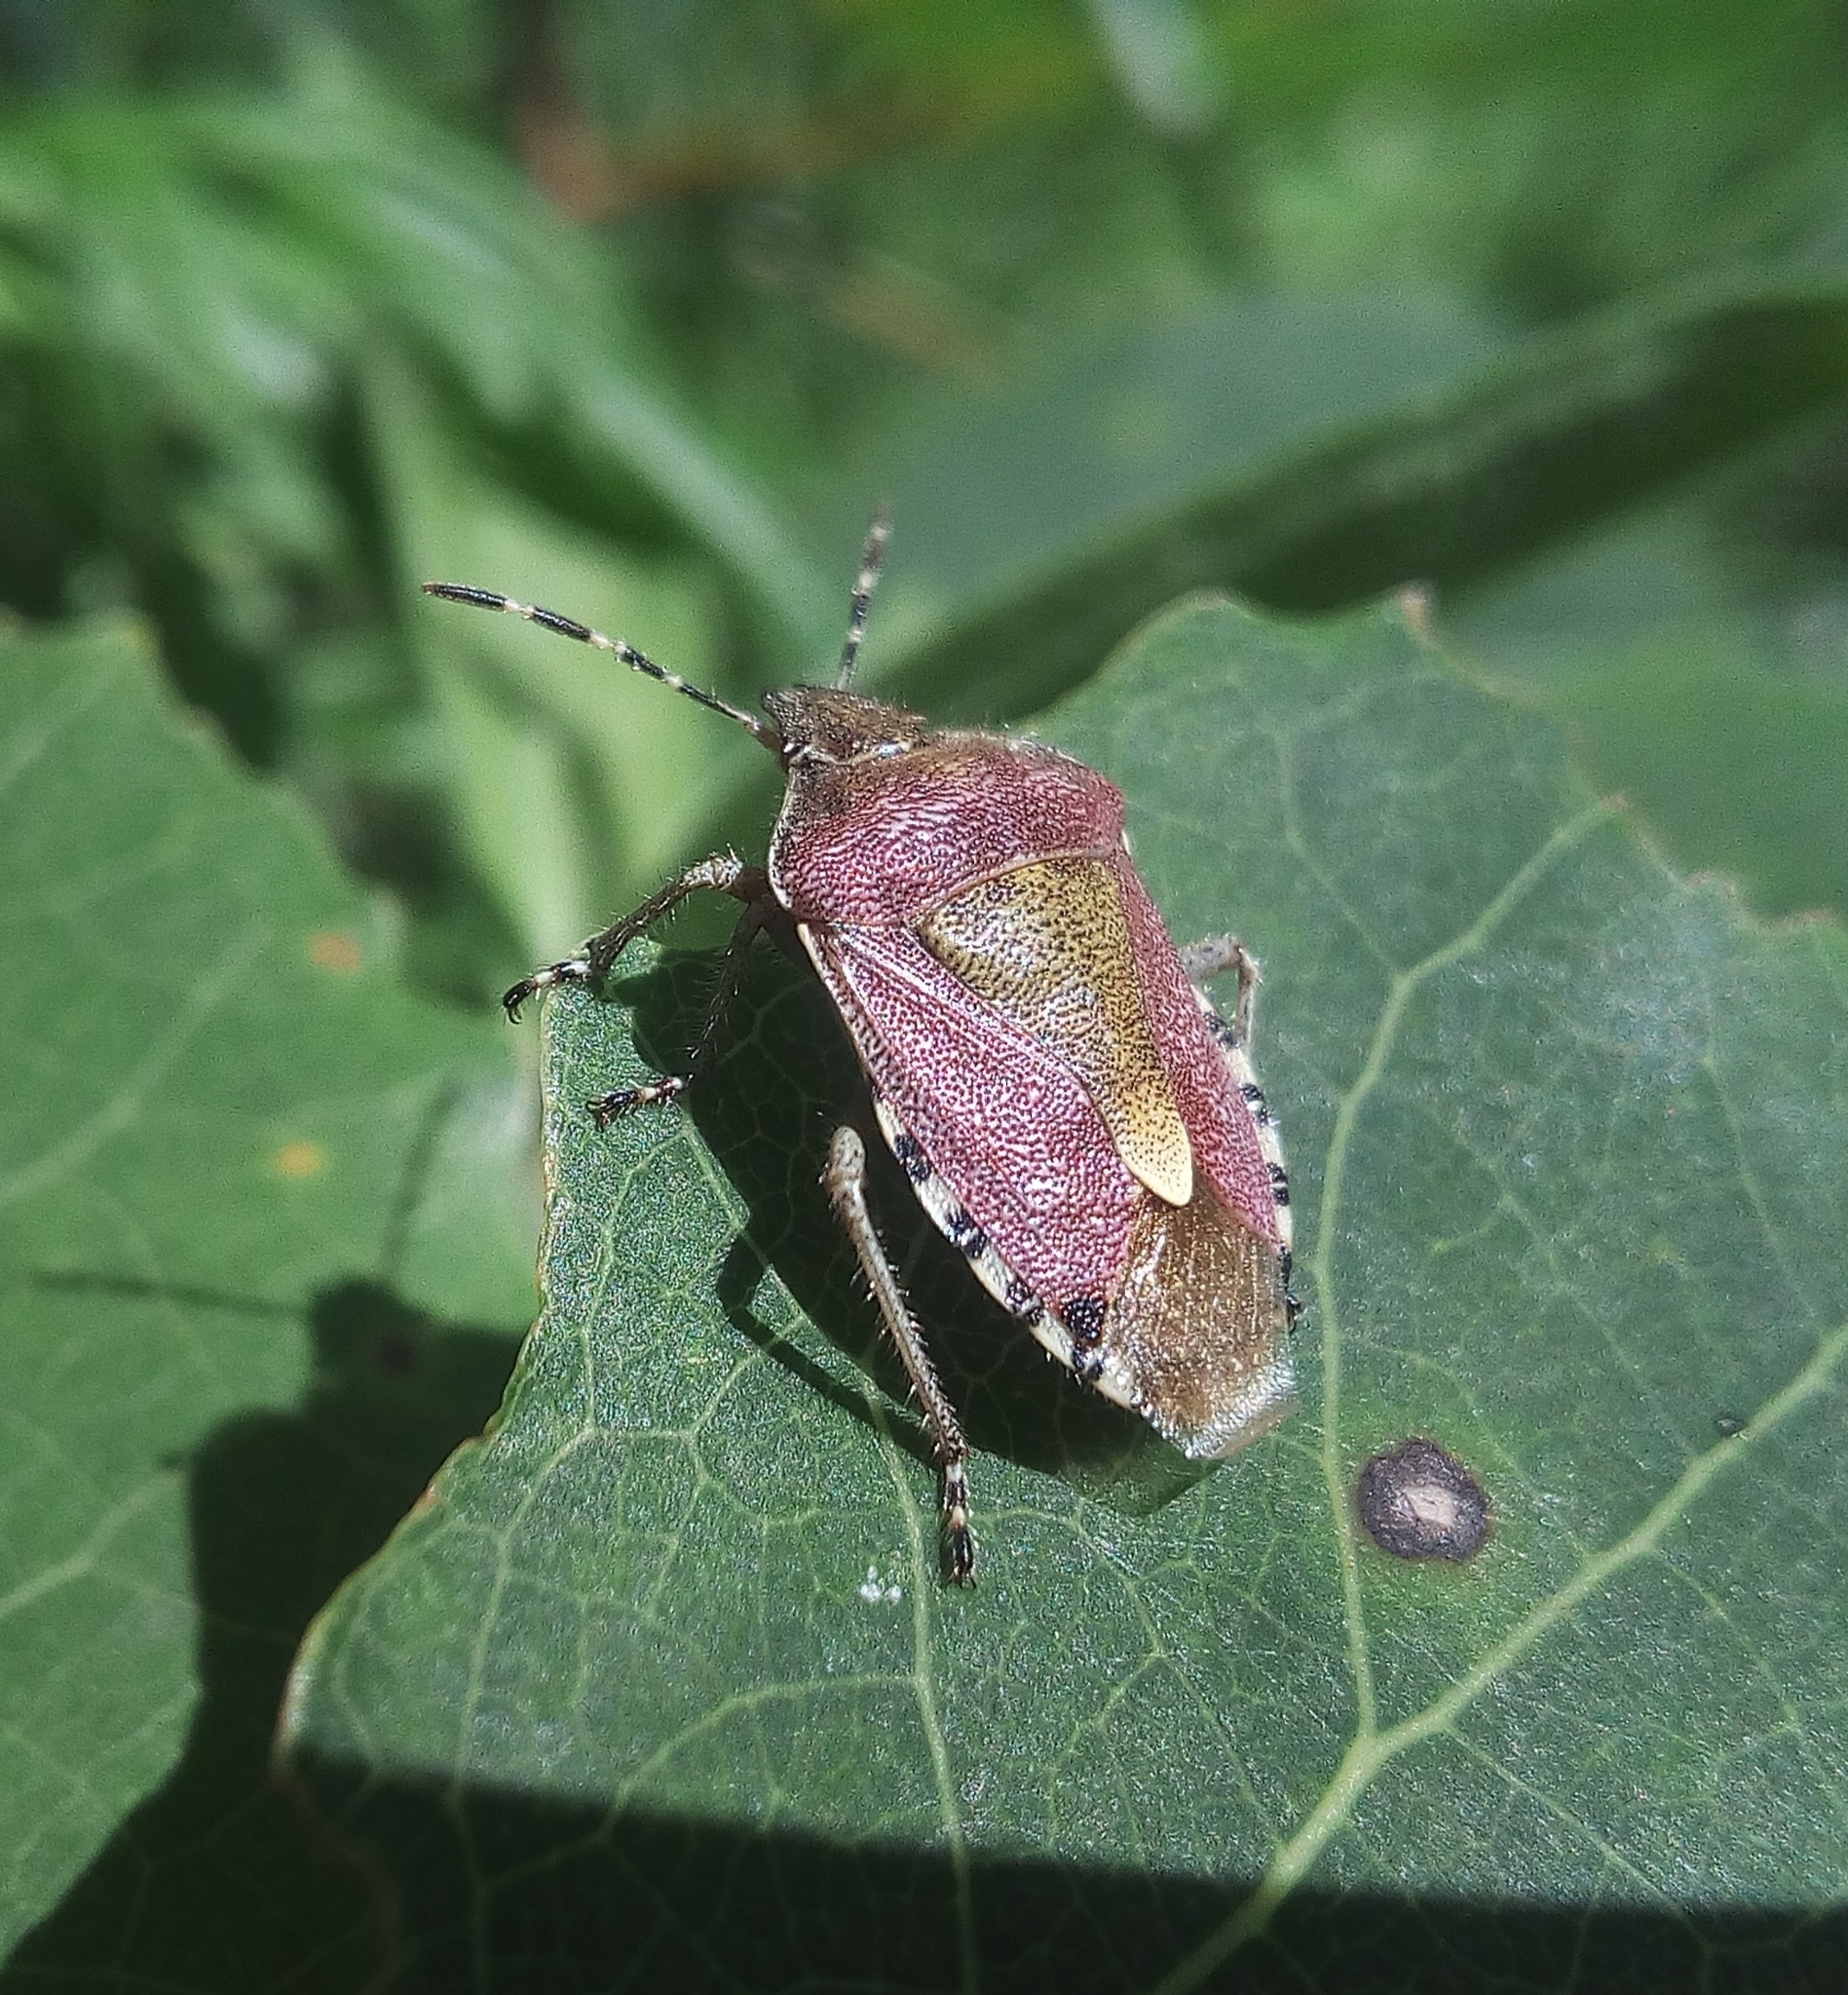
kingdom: Animalia
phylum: Arthropoda
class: Insecta
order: Hemiptera
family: Pentatomidae
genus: Dolycoris
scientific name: Dolycoris baccarum
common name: Sloe bug
